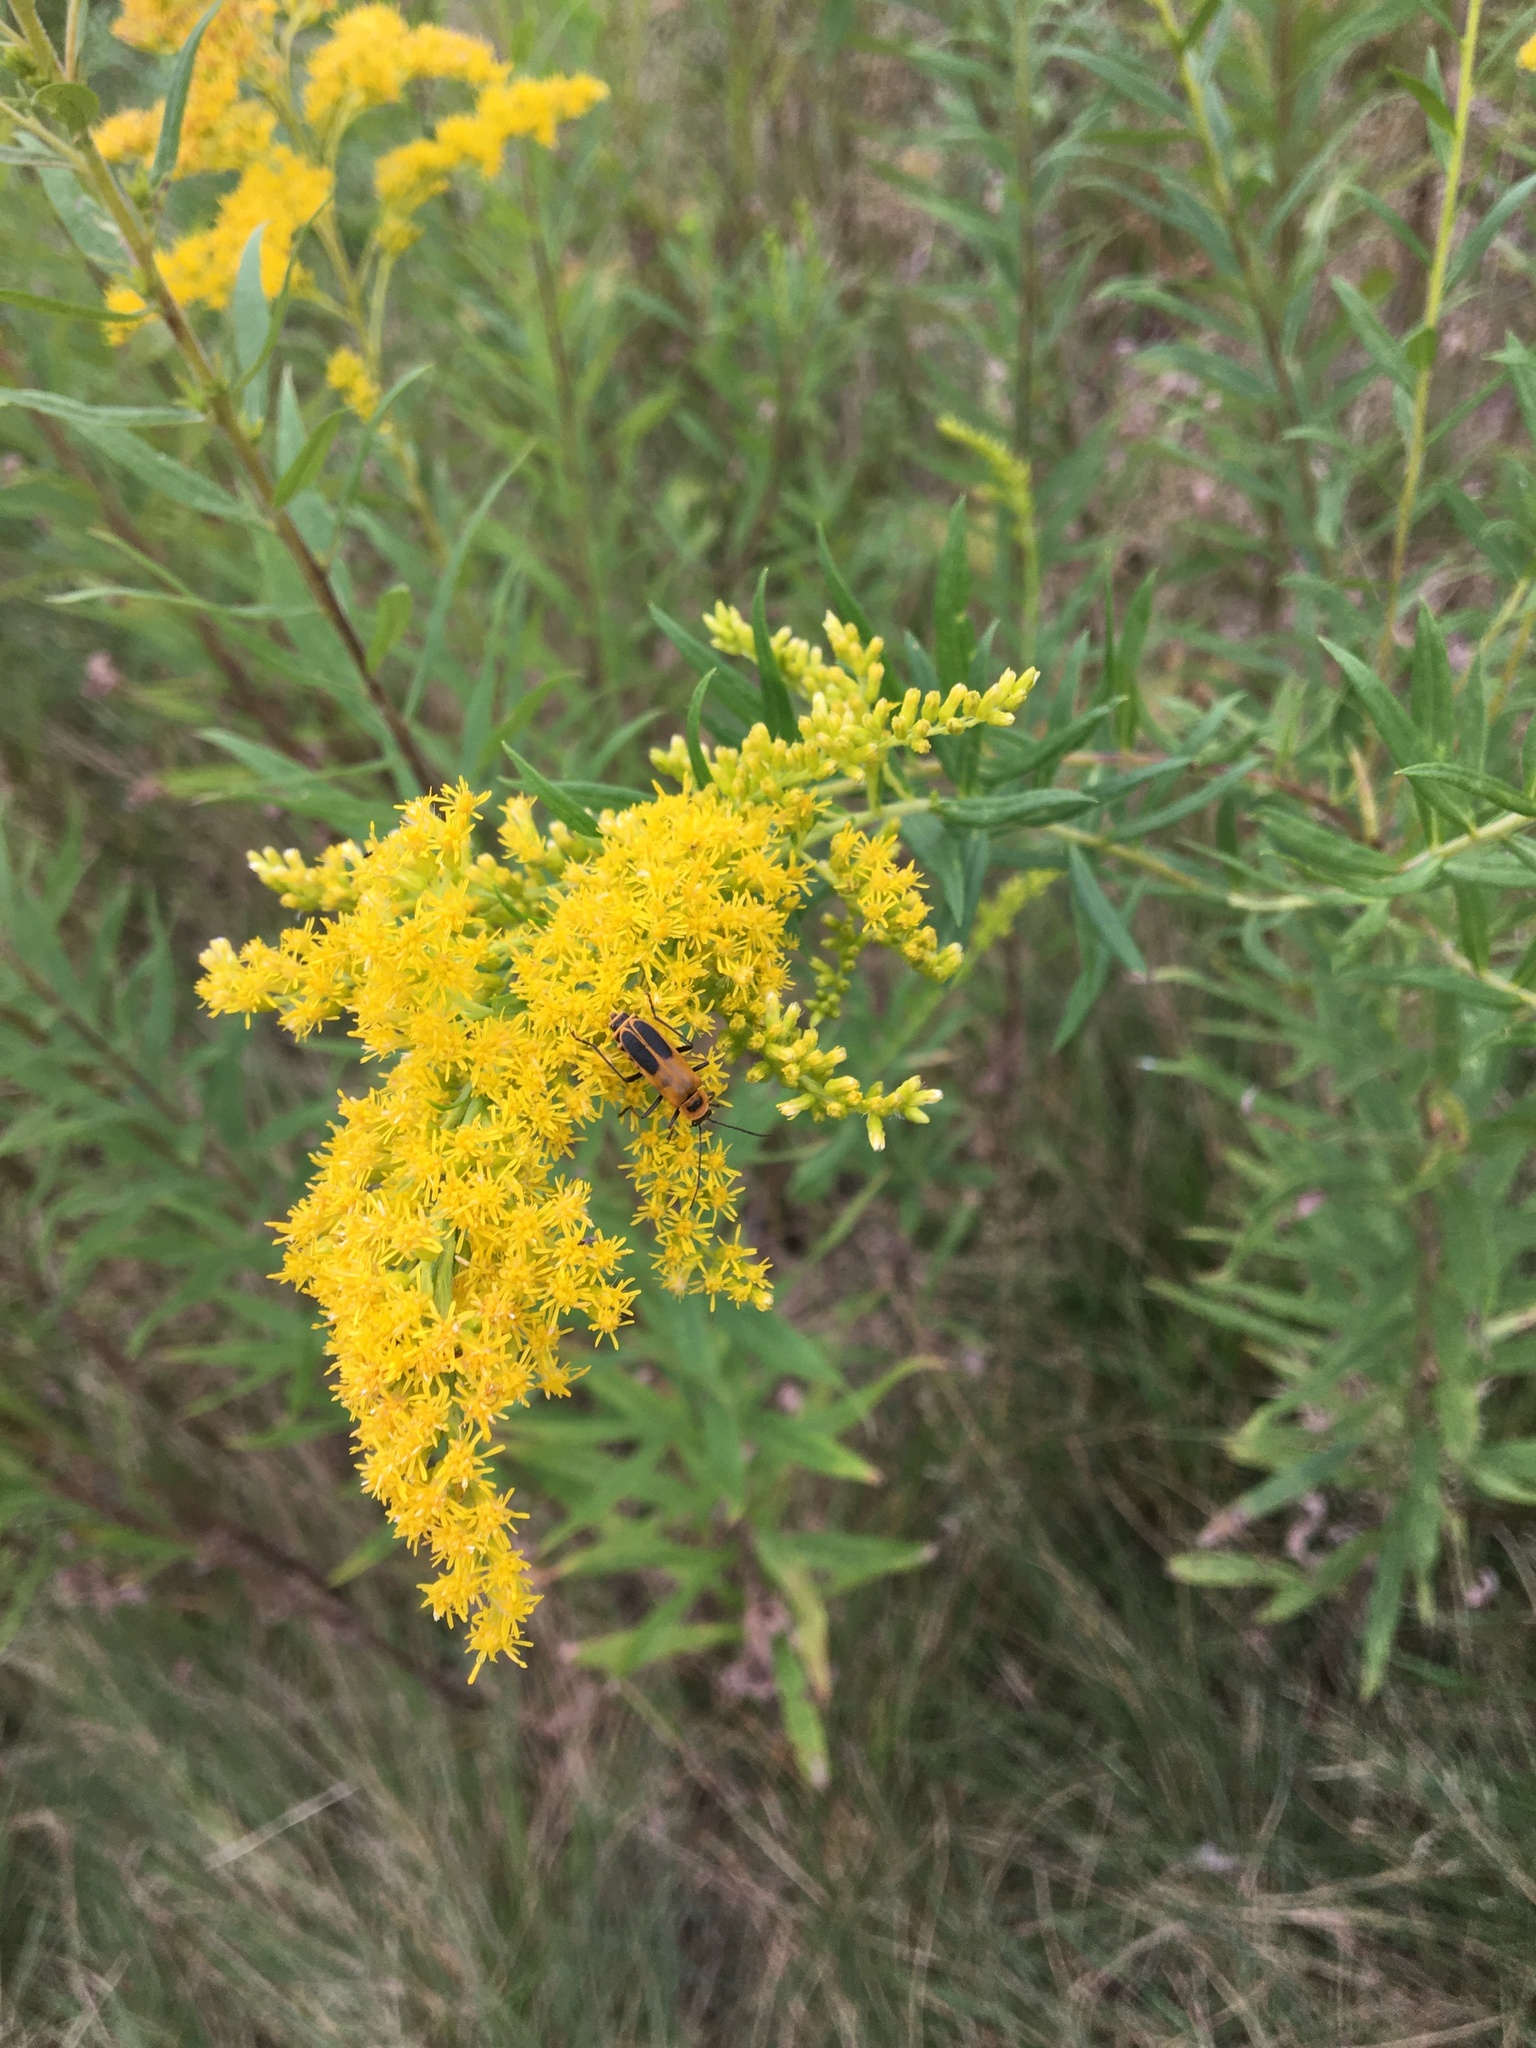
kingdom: Animalia
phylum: Arthropoda
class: Insecta
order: Coleoptera
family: Cantharidae
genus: Chauliognathus
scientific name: Chauliognathus pensylvanicus
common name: Goldenrod soldier beetle
